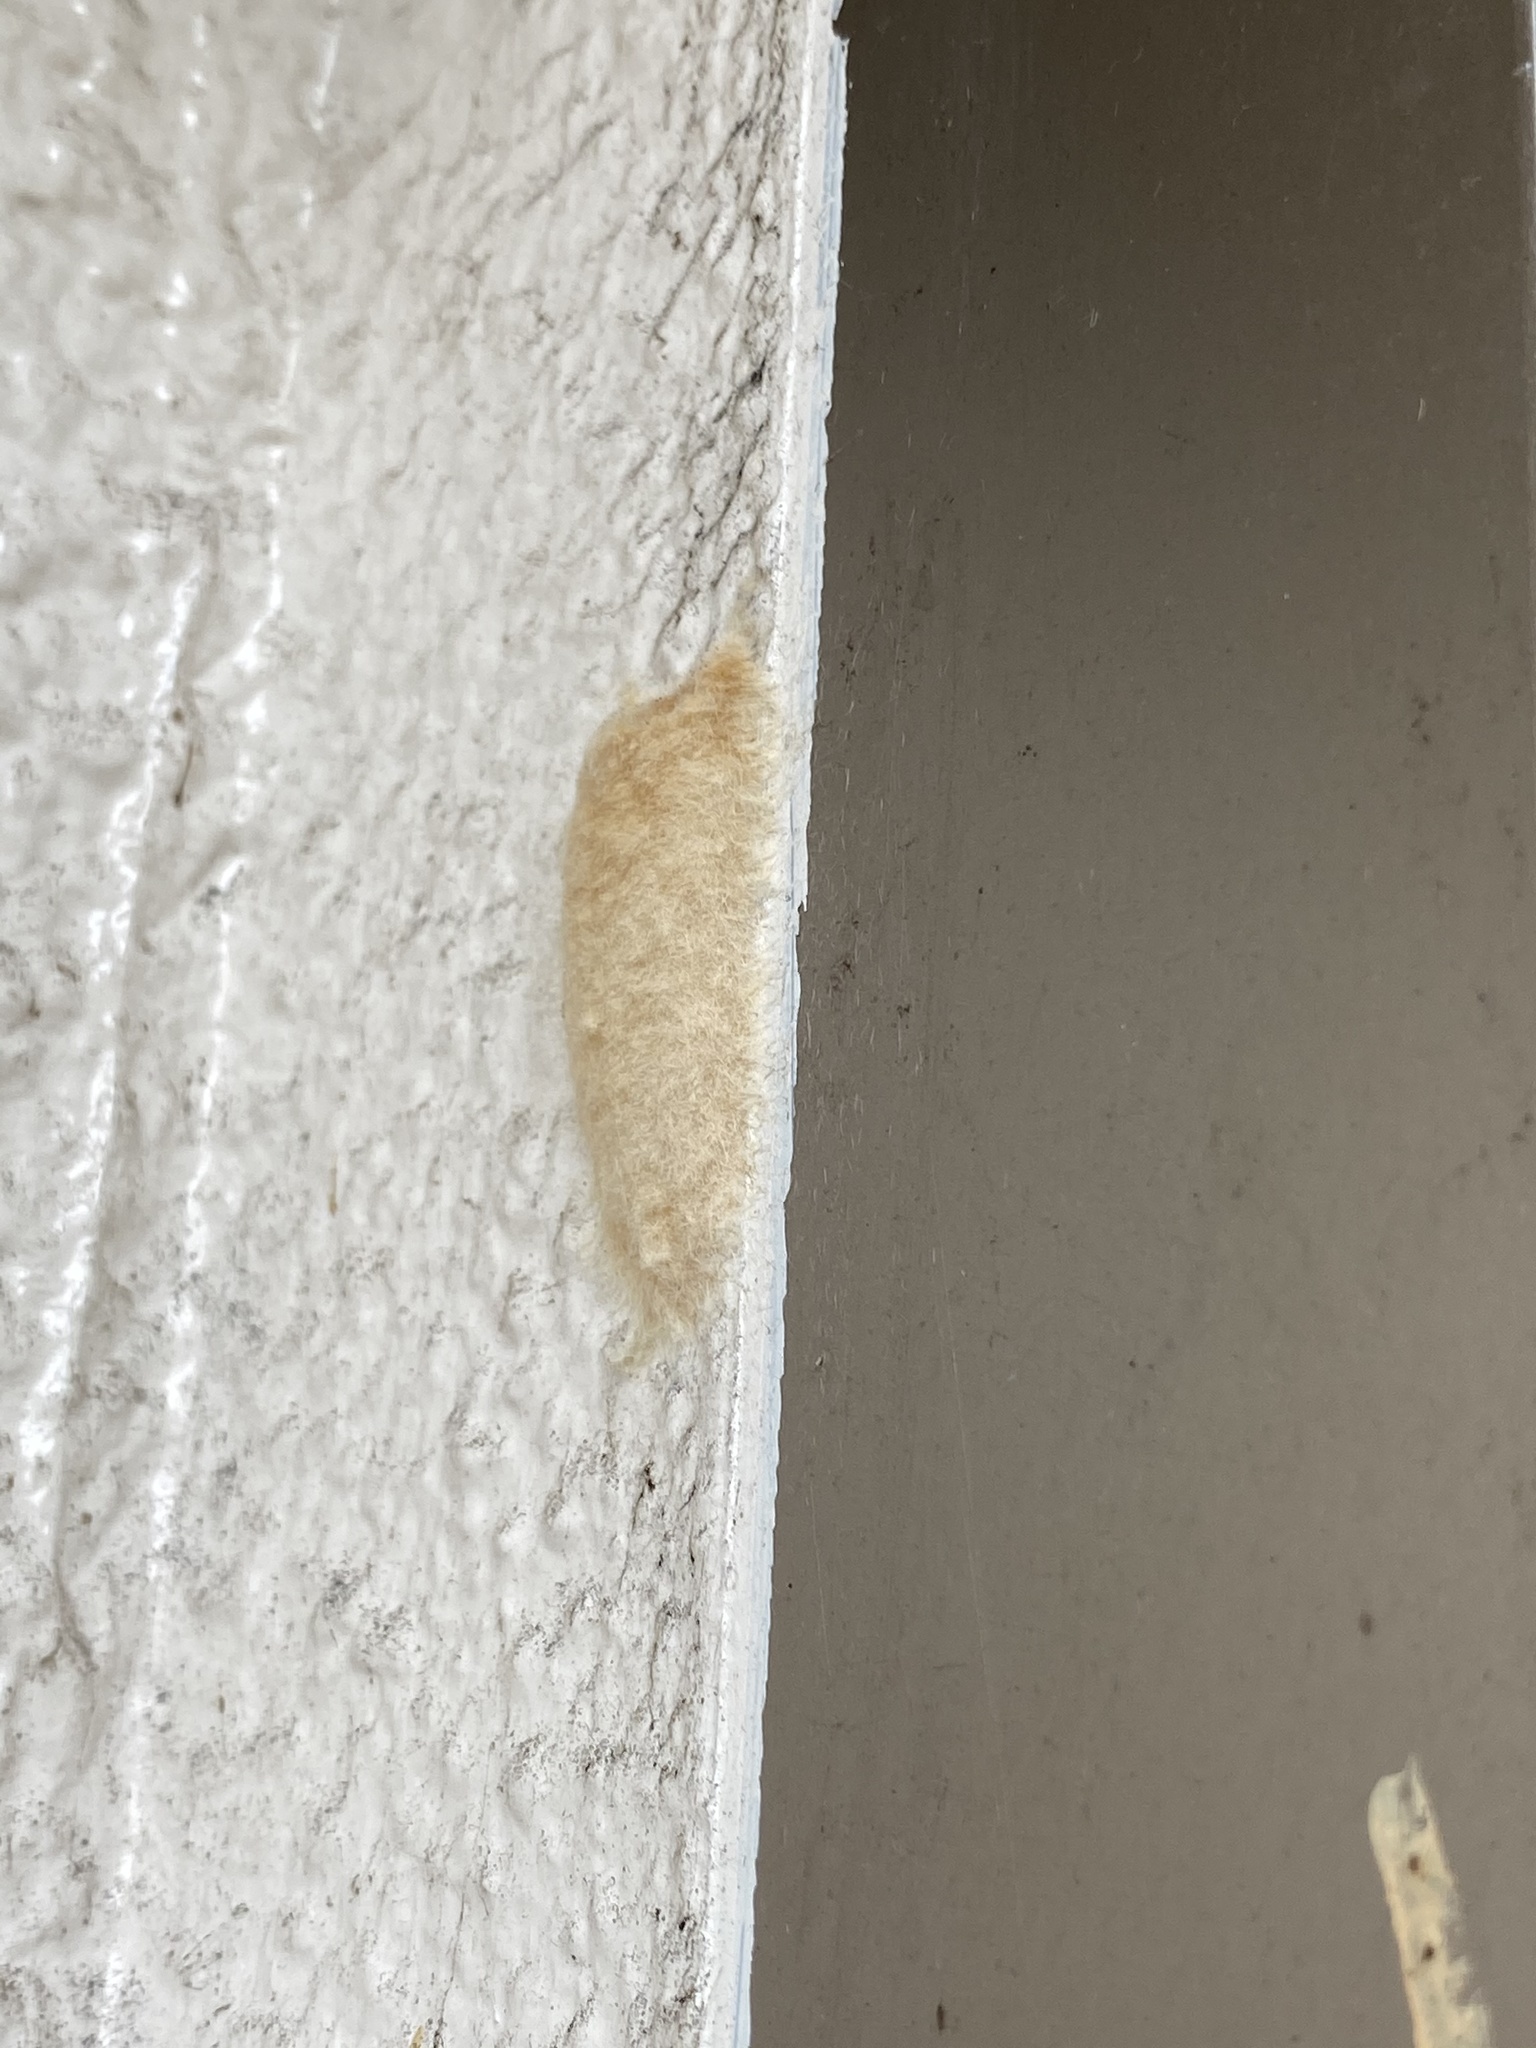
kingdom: Animalia
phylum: Arthropoda
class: Insecta
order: Lepidoptera
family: Erebidae
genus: Lymantria
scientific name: Lymantria dispar
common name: Gypsy moth
